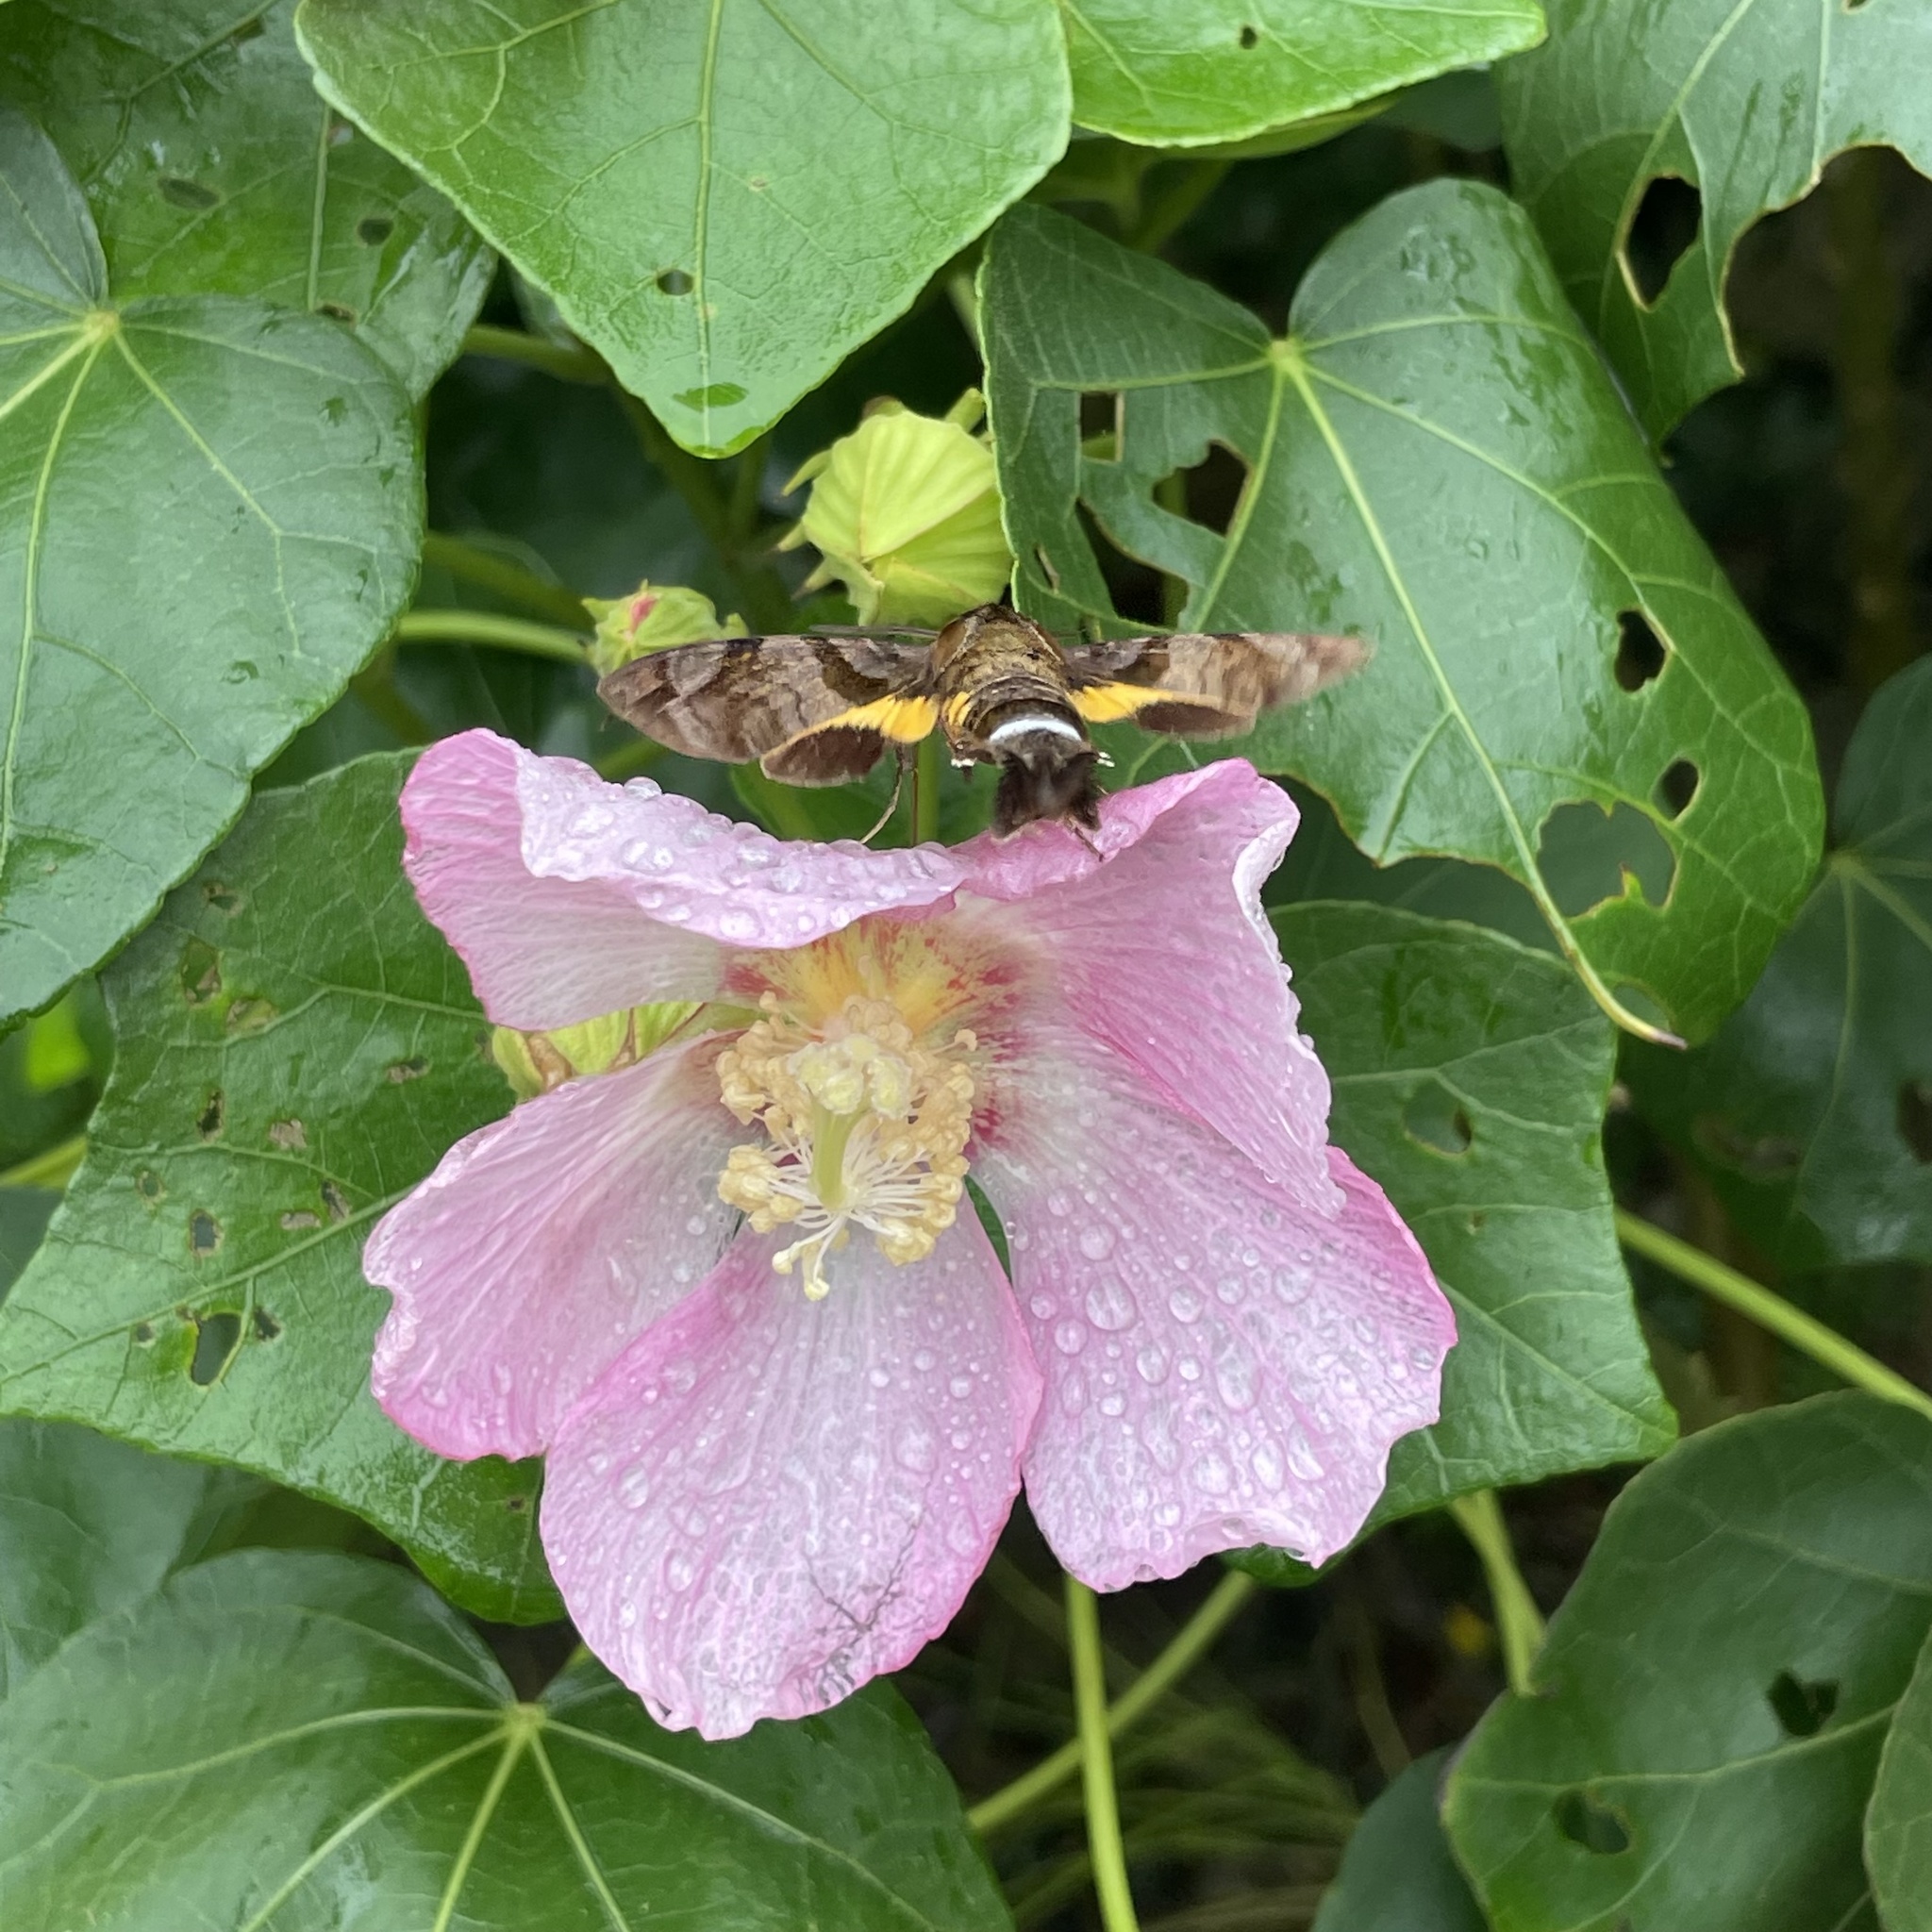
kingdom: Animalia
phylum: Arthropoda
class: Insecta
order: Lepidoptera
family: Sphingidae
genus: Macroglossum
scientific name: Macroglossum pyrrhosticta
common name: Hummingbird hawk moth
